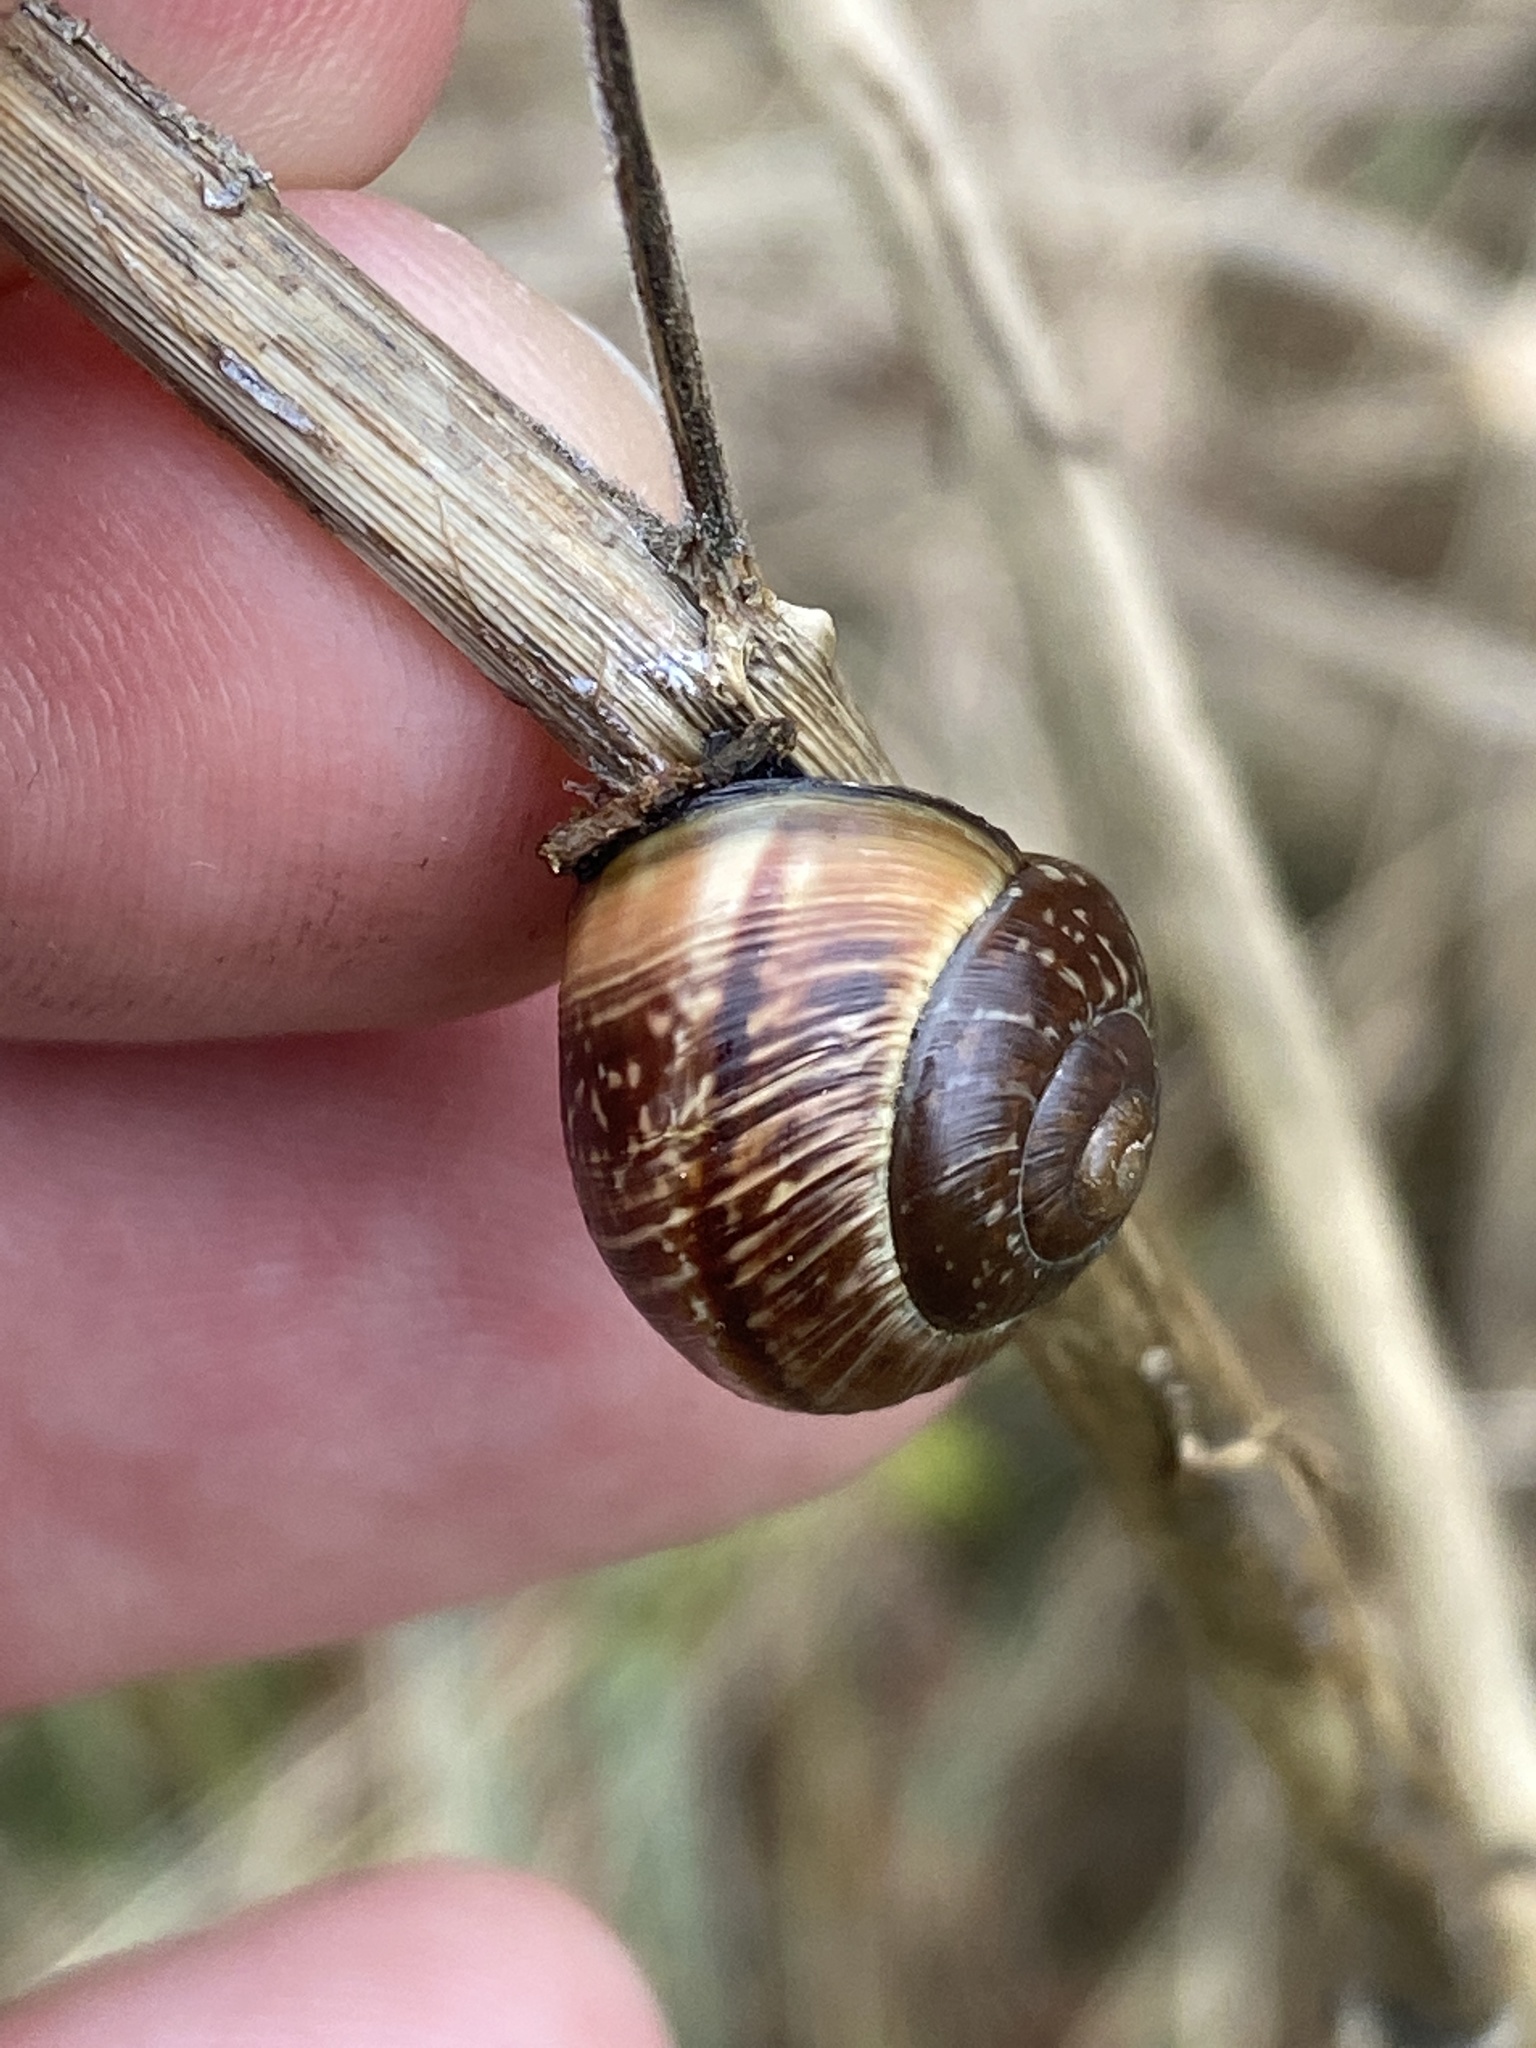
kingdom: Animalia
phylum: Mollusca
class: Gastropoda
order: Stylommatophora
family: Helicidae
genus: Arianta
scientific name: Arianta arbustorum
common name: Copse snail
